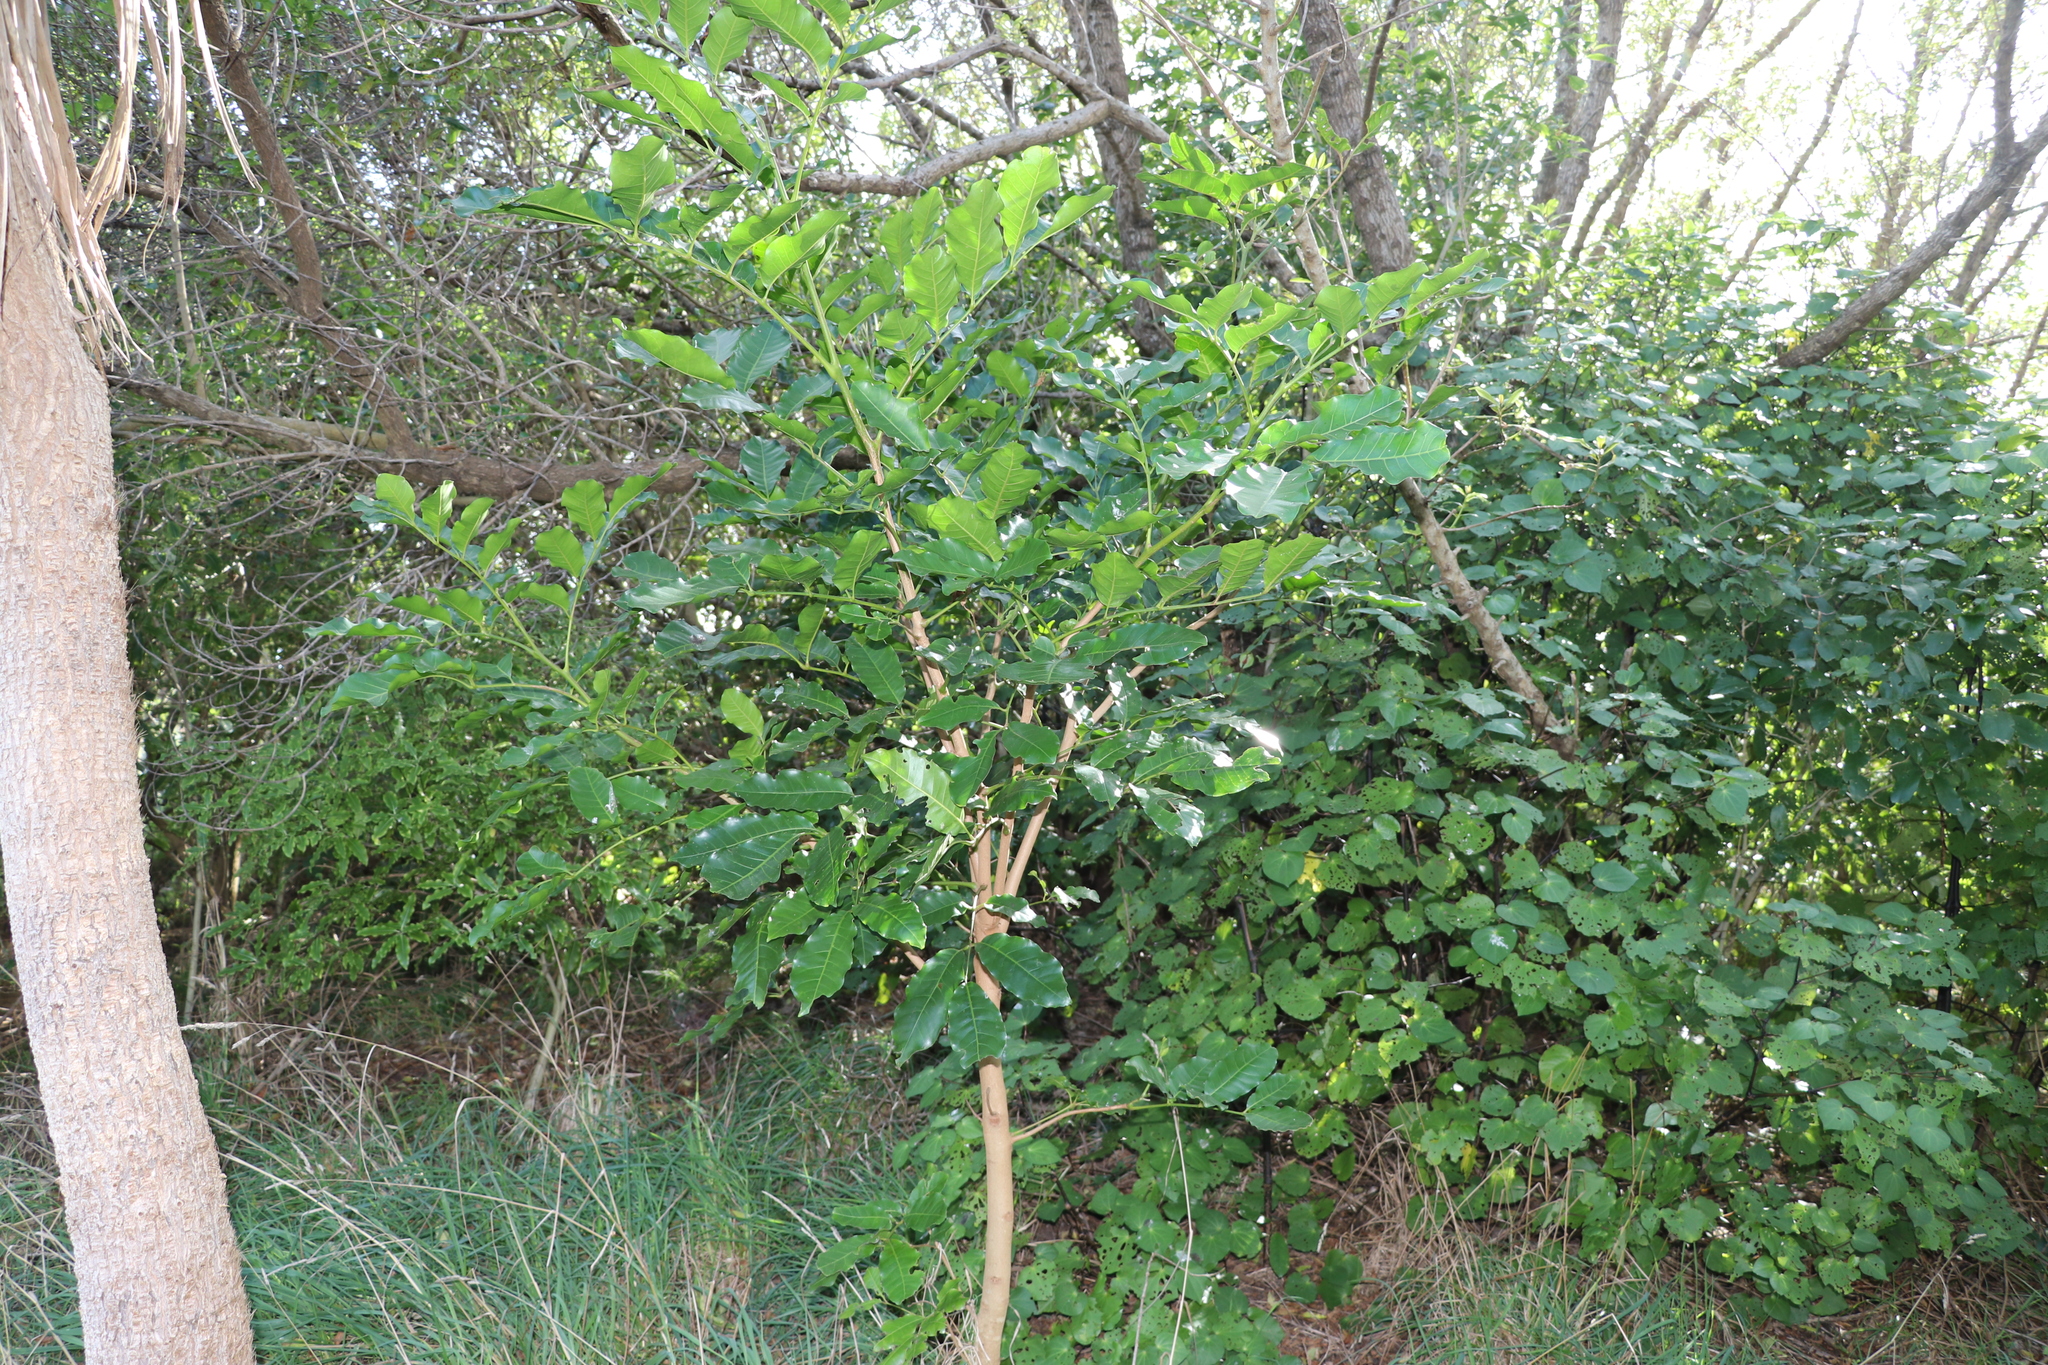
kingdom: Plantae
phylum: Tracheophyta
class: Magnoliopsida
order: Sapindales
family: Meliaceae
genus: Didymocheton
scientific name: Didymocheton spectabilis
